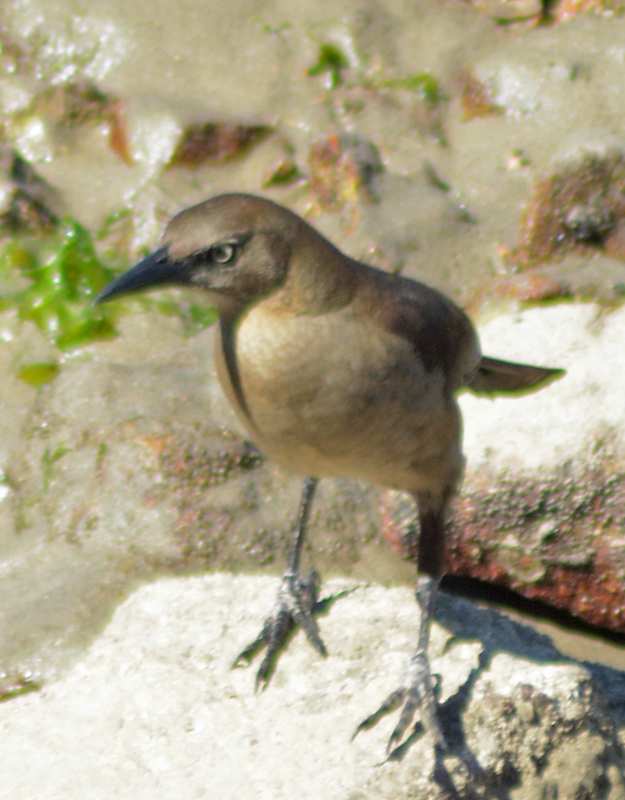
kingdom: Animalia
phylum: Chordata
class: Aves
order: Passeriformes
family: Icteridae
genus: Quiscalus
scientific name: Quiscalus mexicanus
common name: Great-tailed grackle
